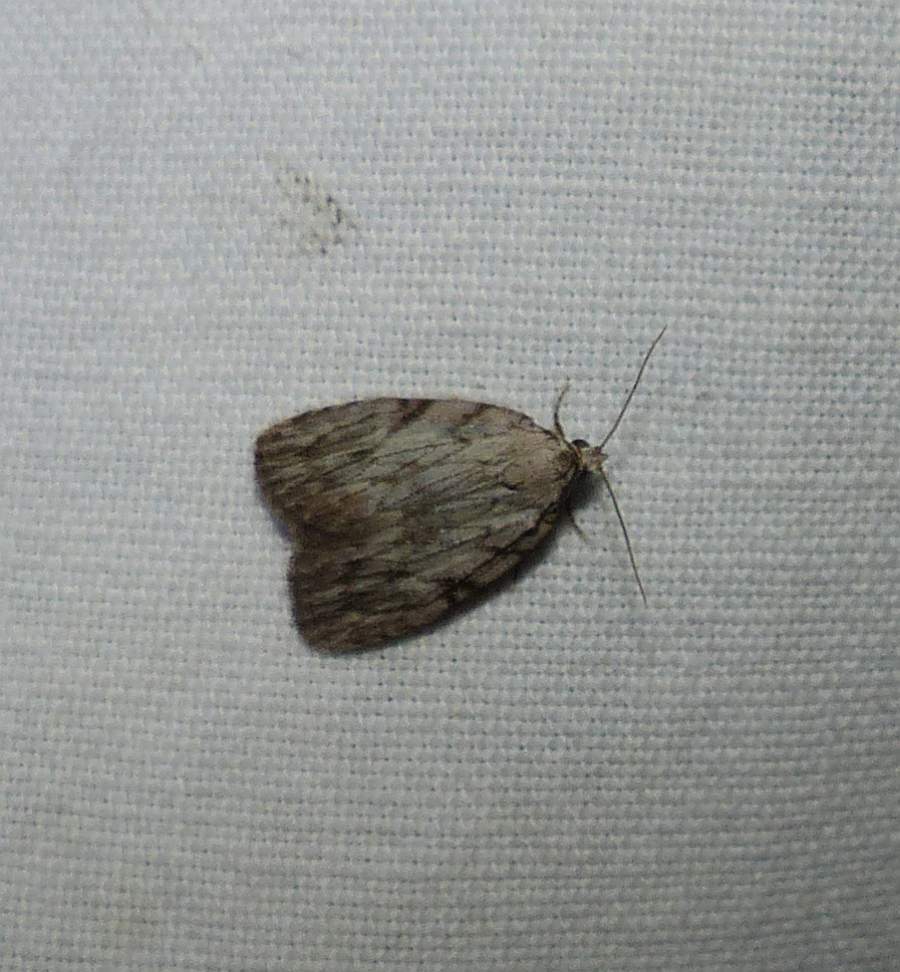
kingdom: Animalia
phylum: Arthropoda
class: Insecta
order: Lepidoptera
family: Noctuidae
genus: Balsa
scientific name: Balsa tristrigella
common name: Three-lined balsa moth
